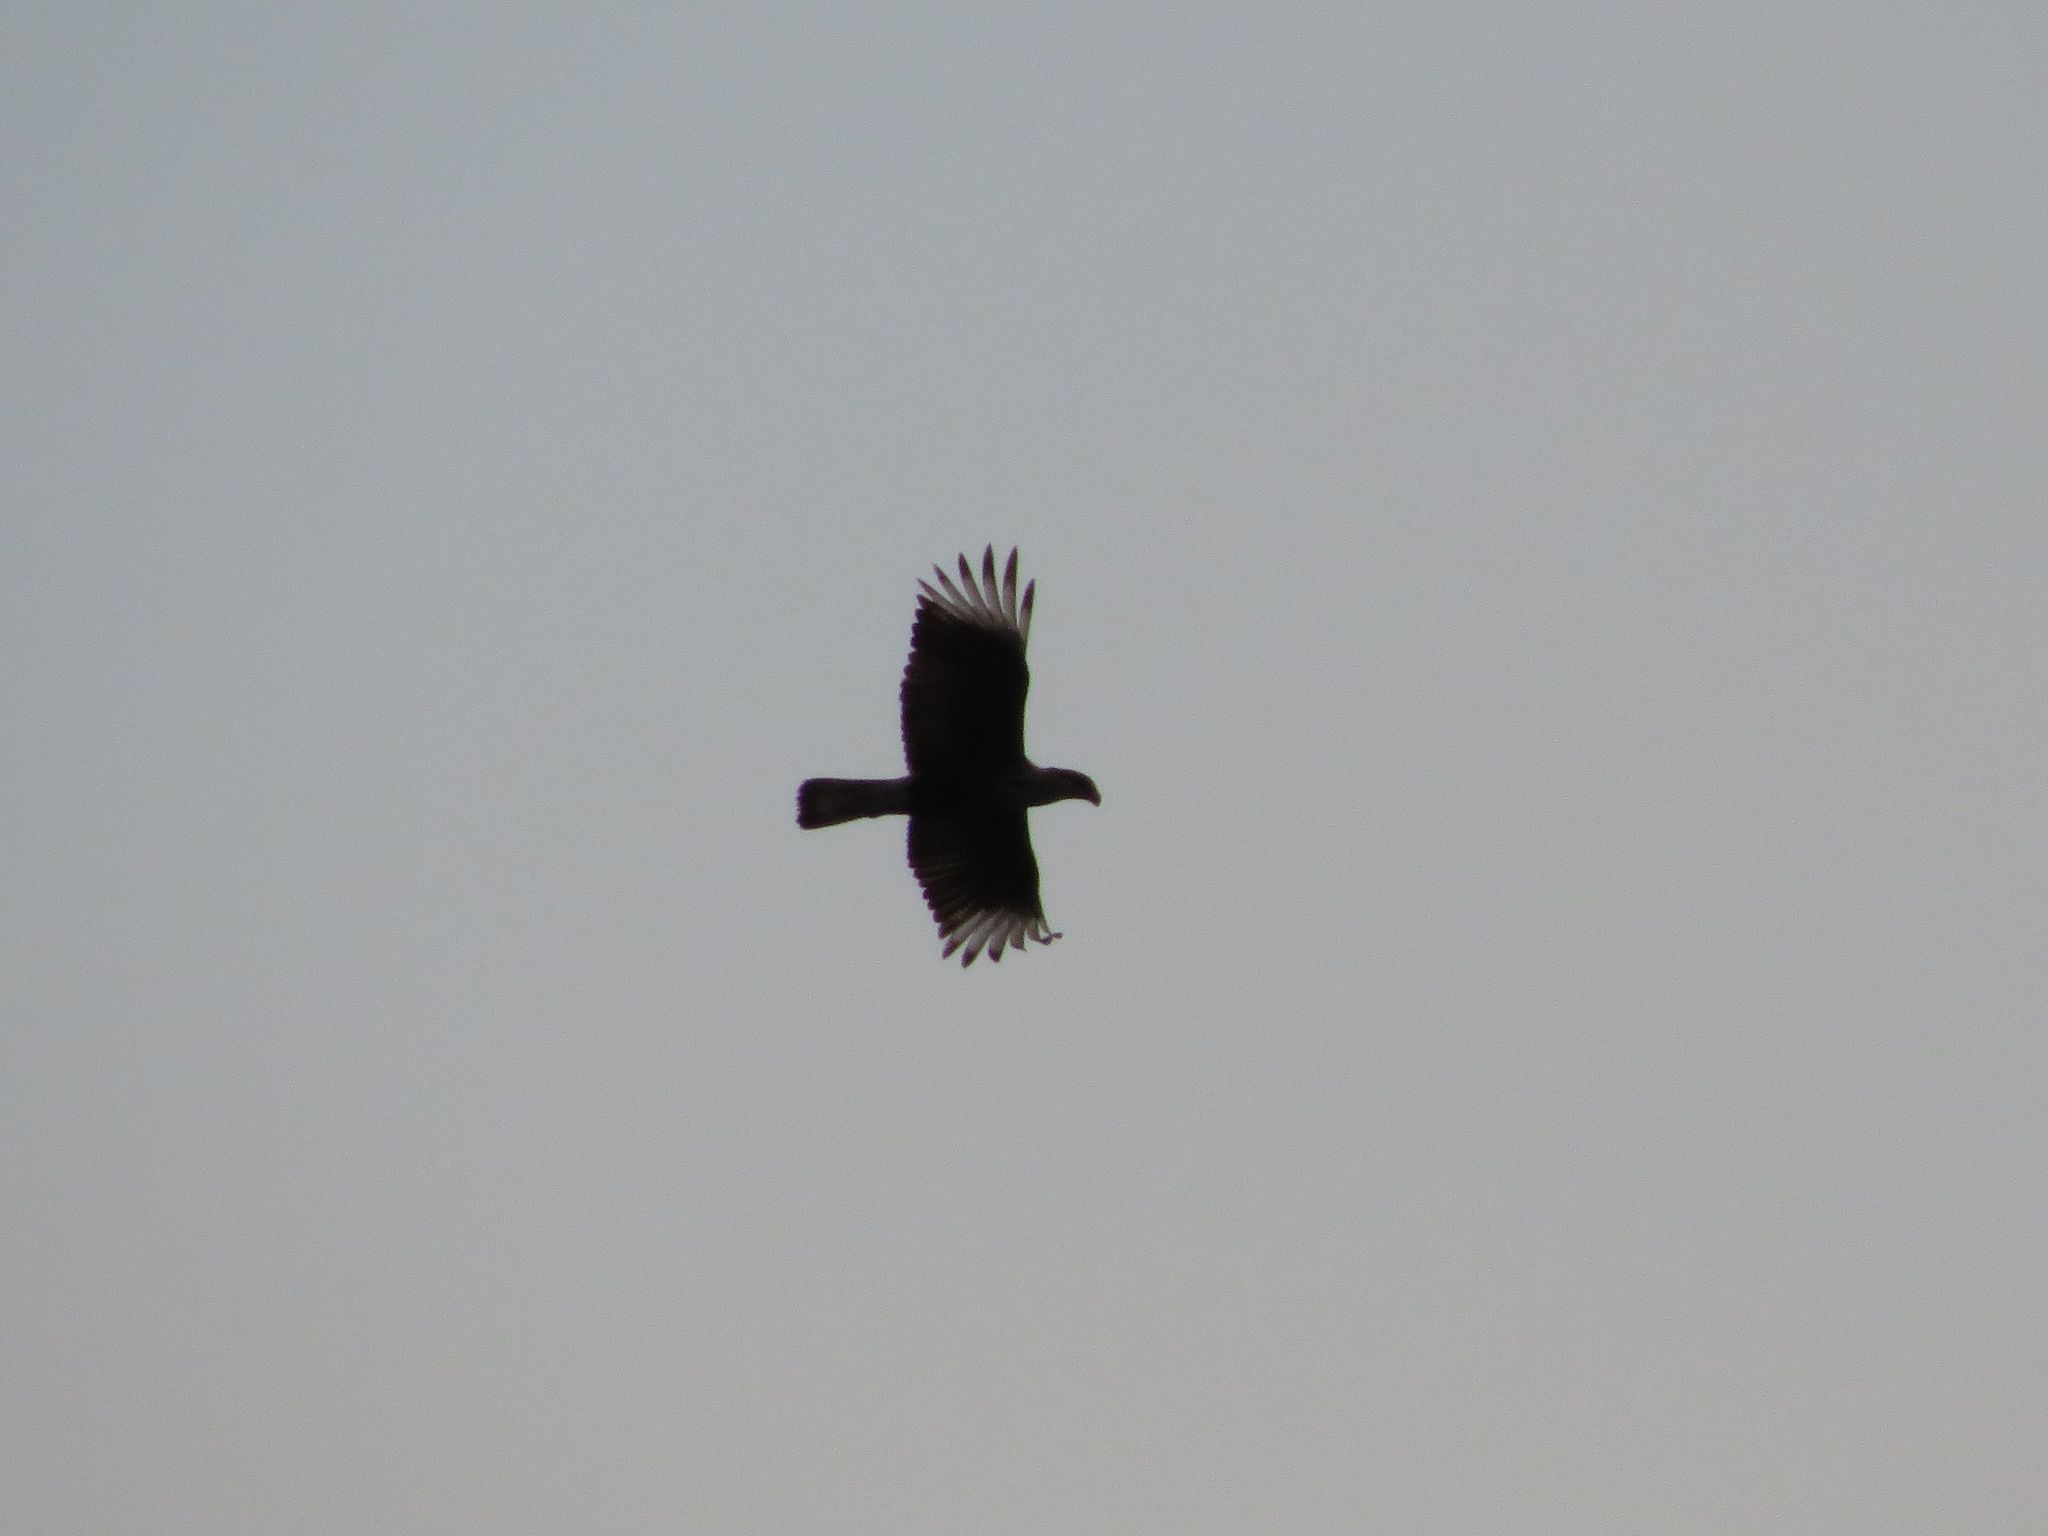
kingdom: Animalia
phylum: Chordata
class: Aves
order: Falconiformes
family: Falconidae
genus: Caracara
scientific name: Caracara plancus
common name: Southern caracara
